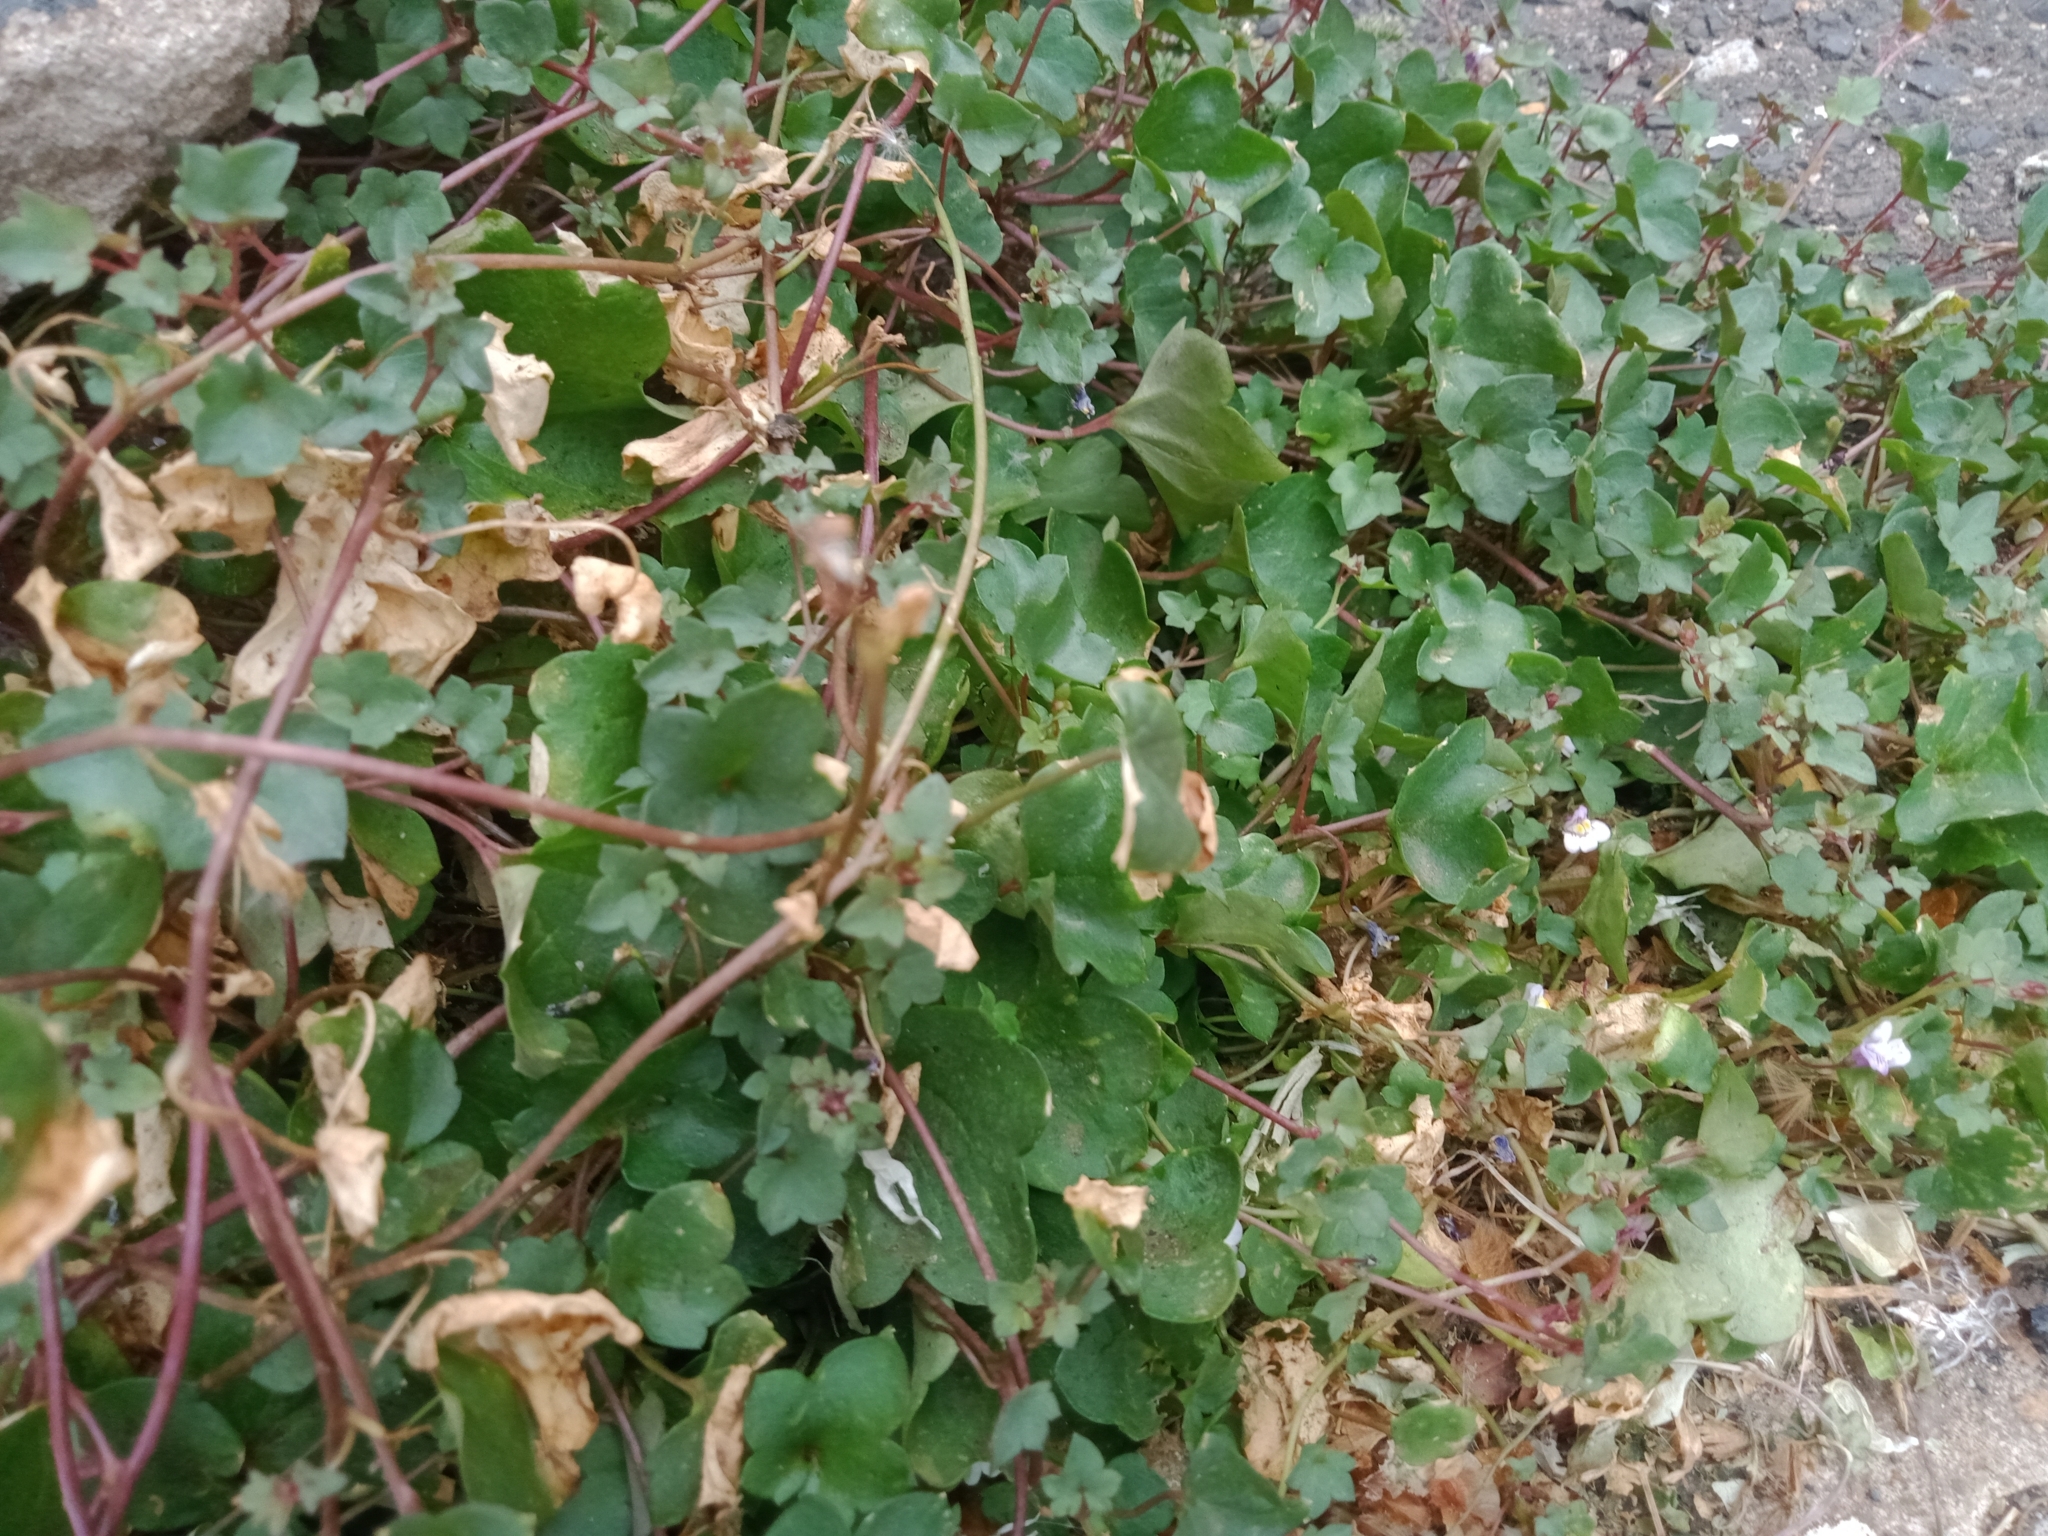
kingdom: Plantae
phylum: Tracheophyta
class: Magnoliopsida
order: Lamiales
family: Plantaginaceae
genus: Cymbalaria
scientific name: Cymbalaria muralis
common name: Ivy-leaved toadflax
